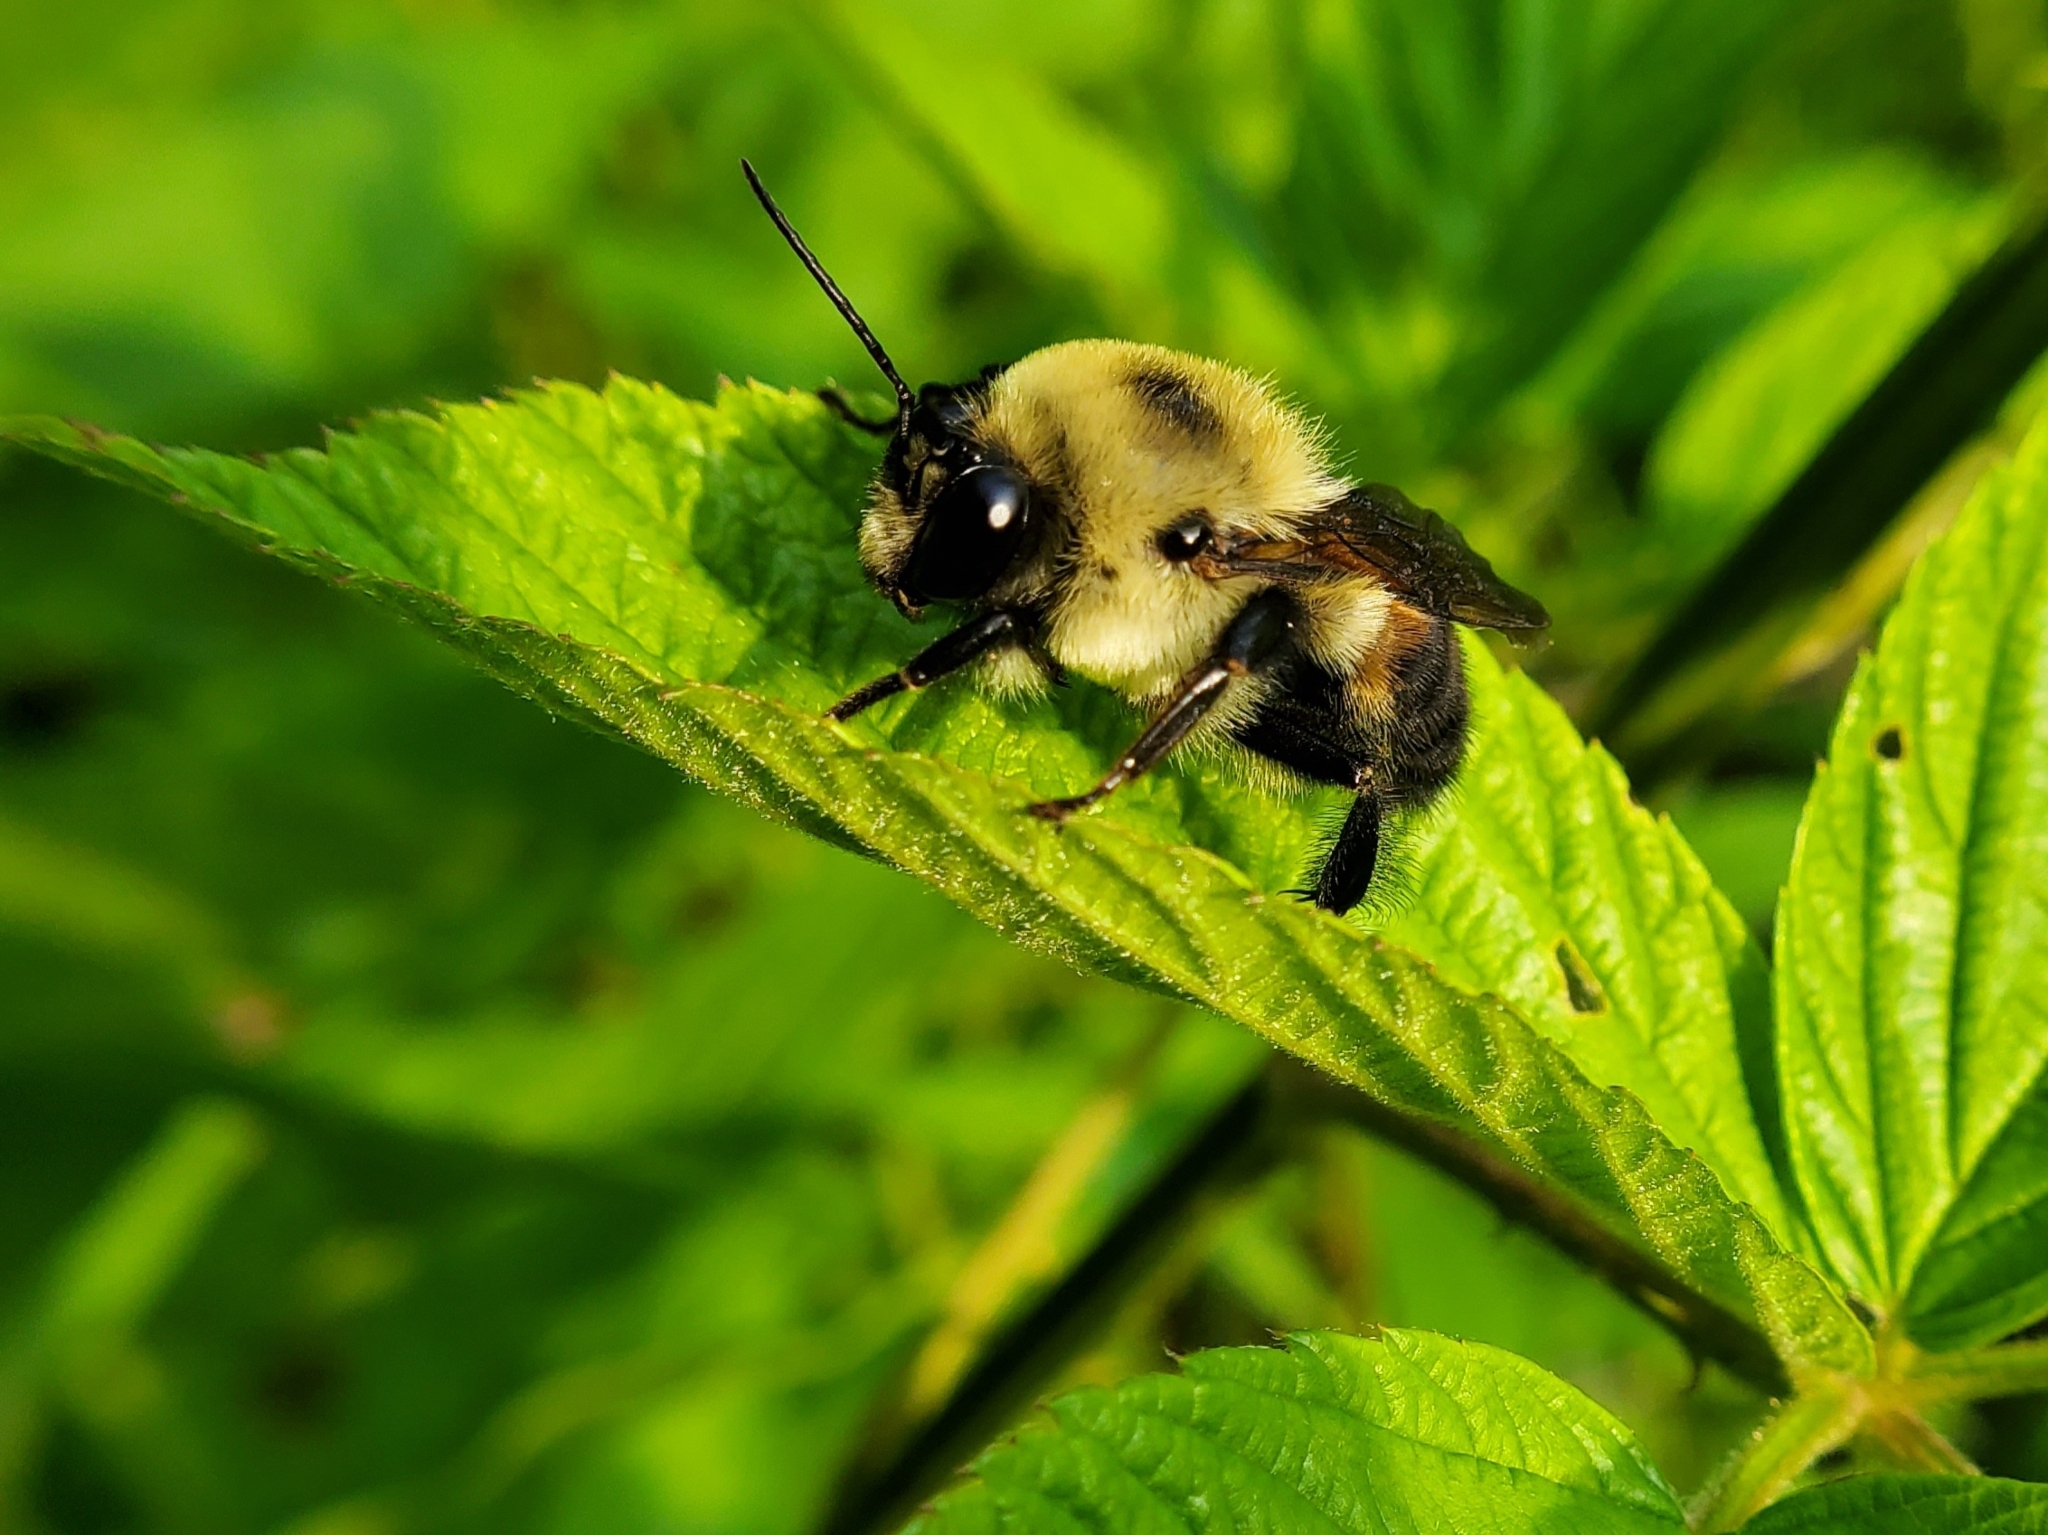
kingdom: Animalia
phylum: Arthropoda
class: Insecta
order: Hymenoptera
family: Apidae
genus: Bombus
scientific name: Bombus griseocollis
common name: Brown-belted bumble bee
